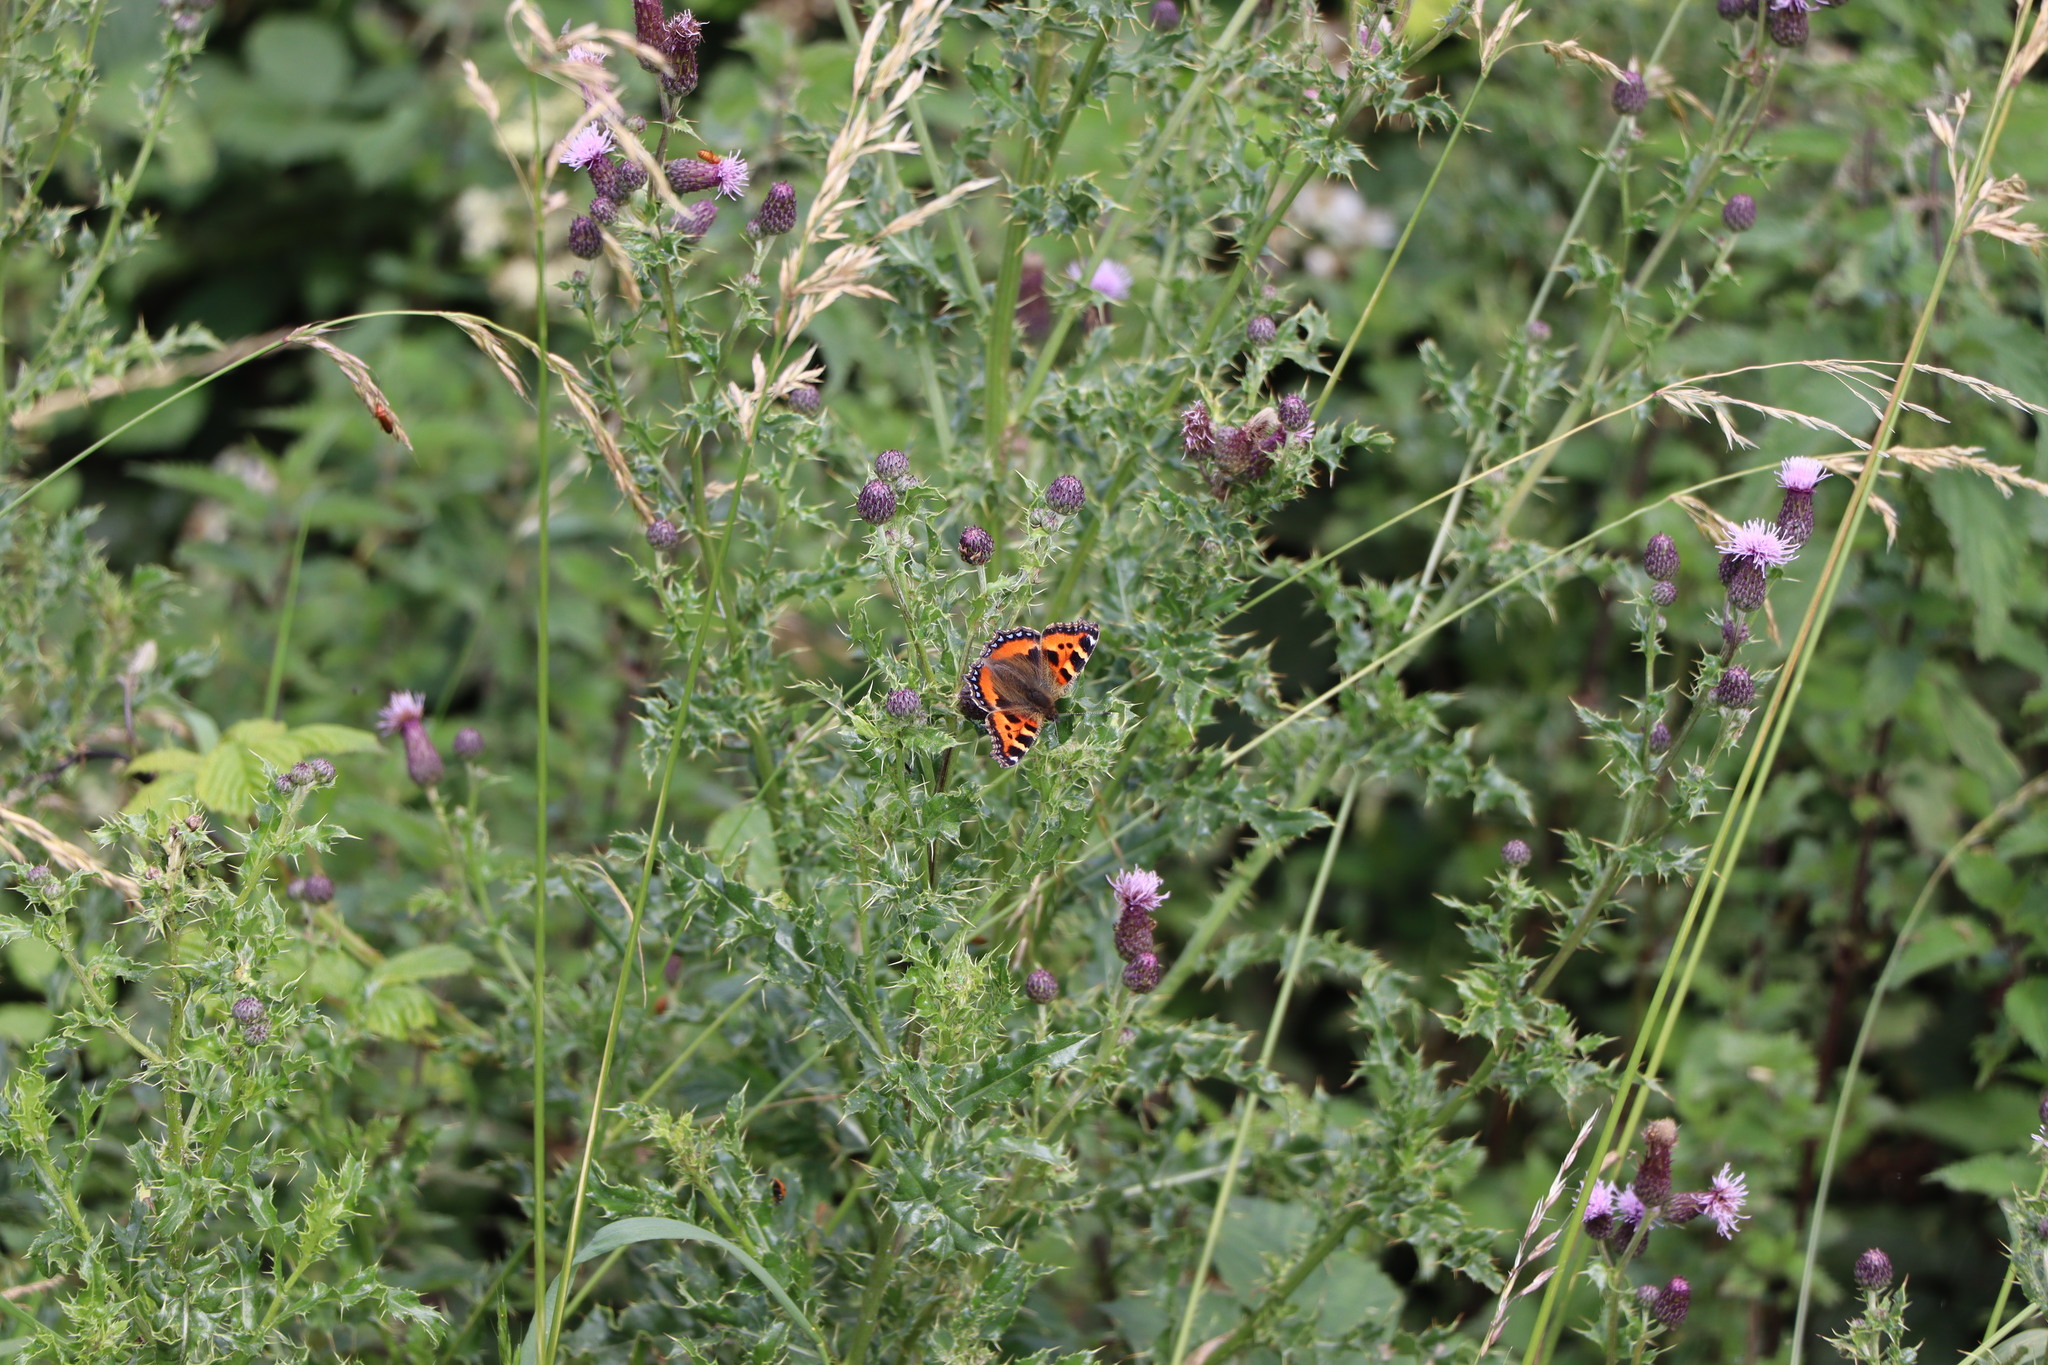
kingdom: Animalia
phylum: Arthropoda
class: Insecta
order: Lepidoptera
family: Nymphalidae
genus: Aglais
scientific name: Aglais urticae
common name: Small tortoiseshell
